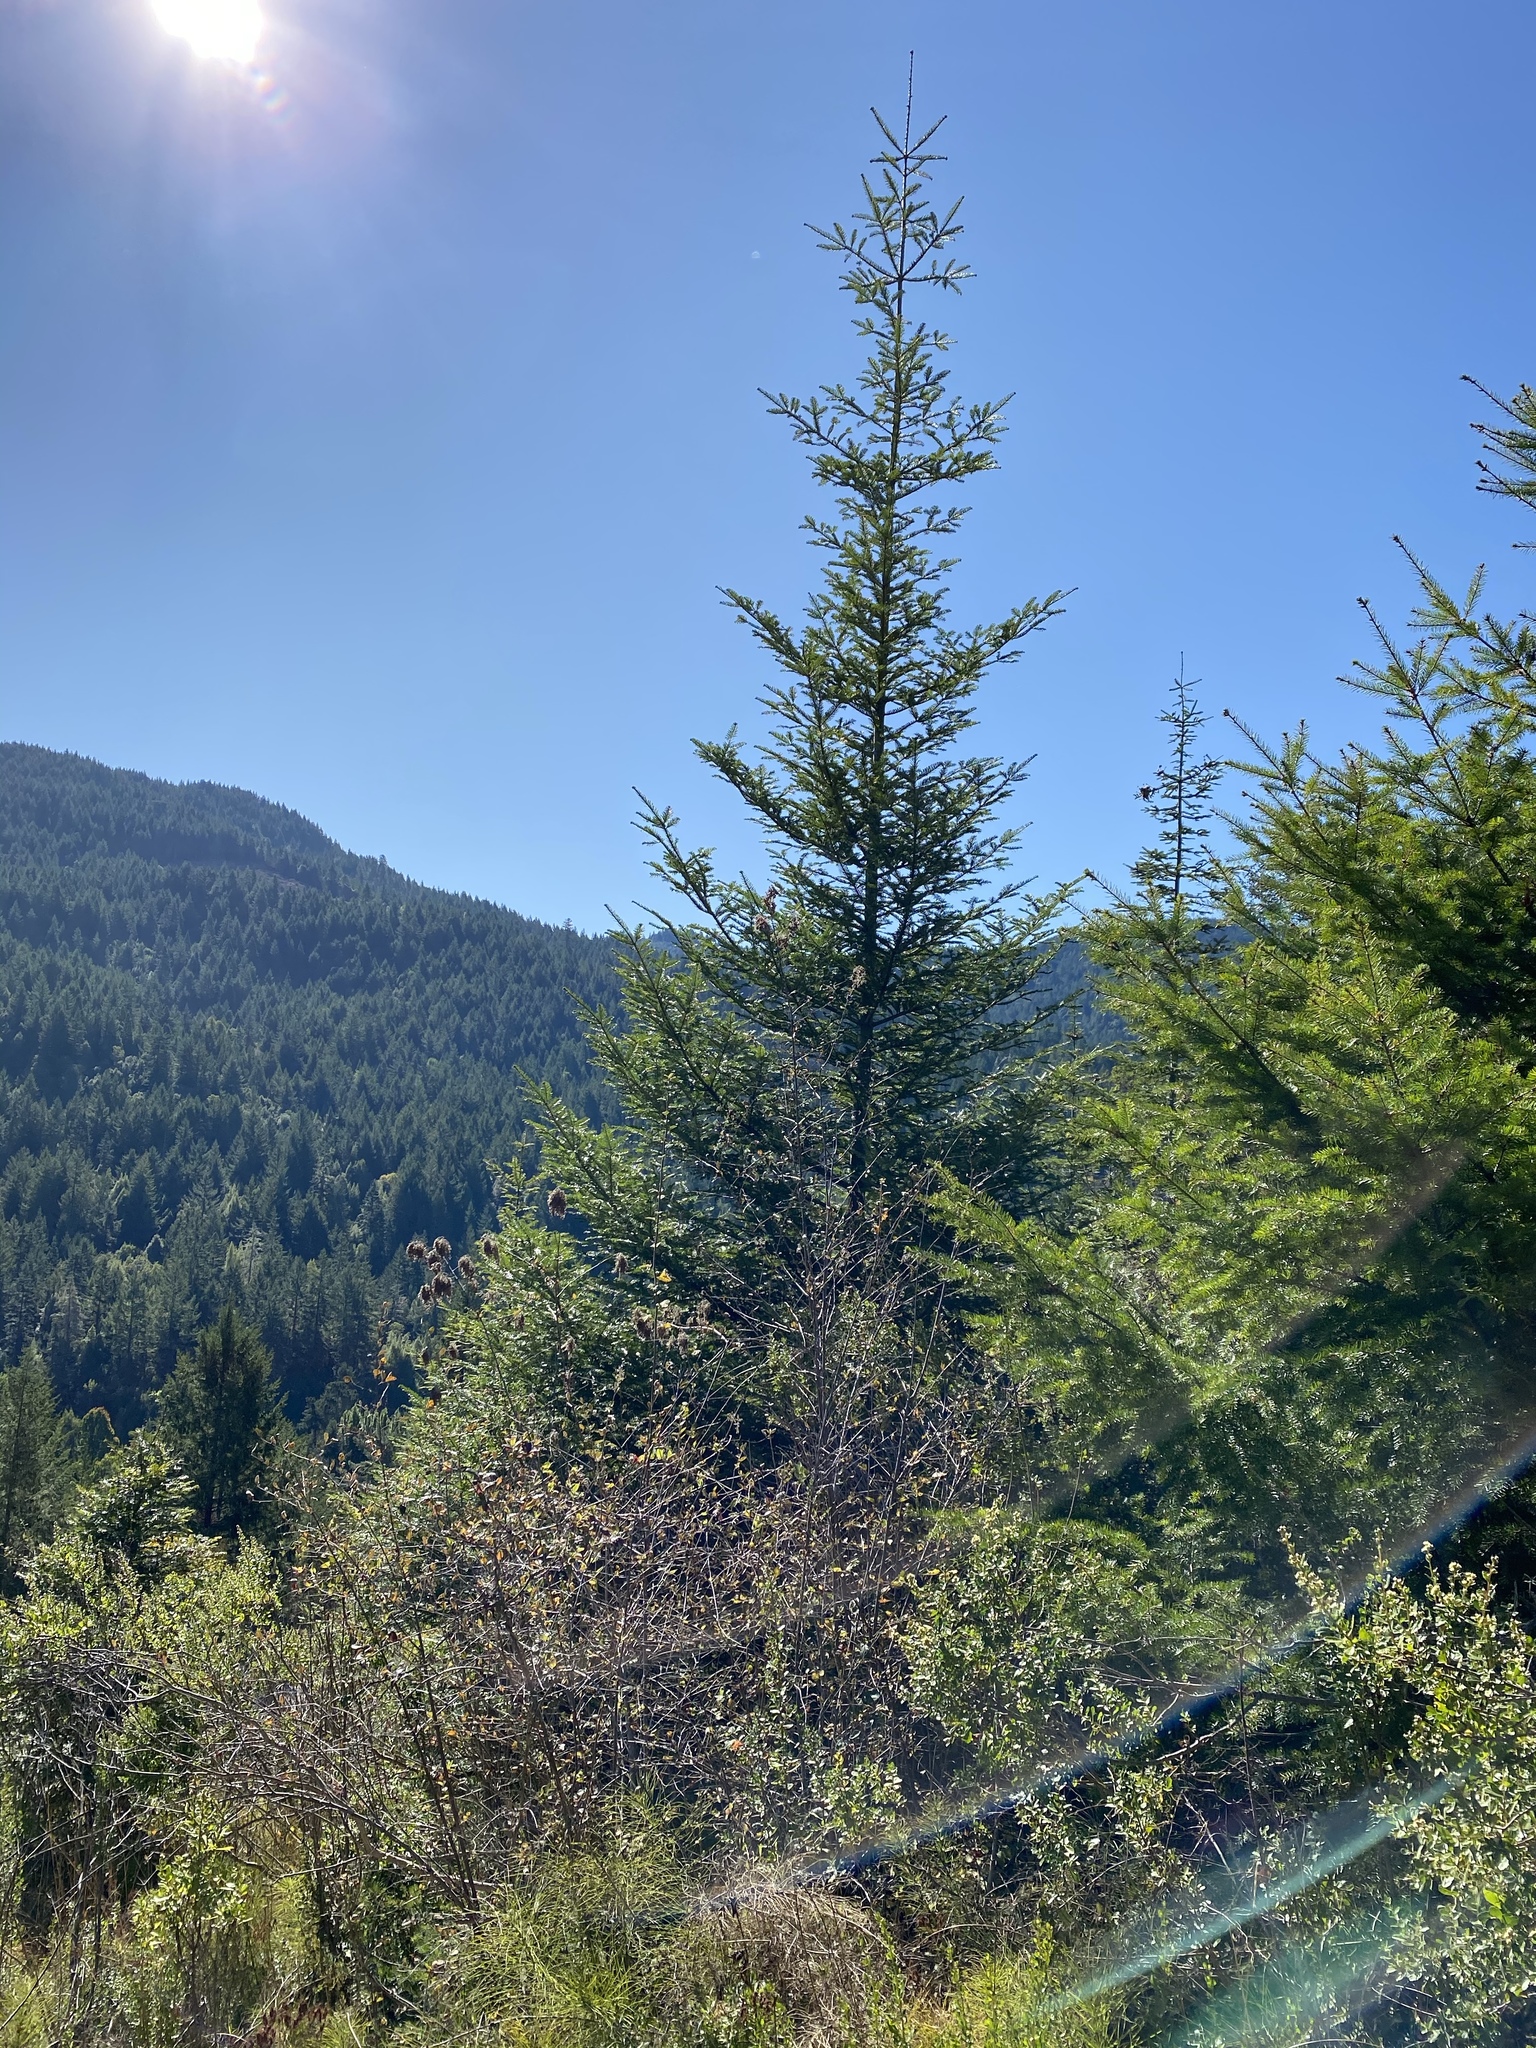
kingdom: Plantae
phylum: Tracheophyta
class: Pinopsida
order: Pinales
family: Pinaceae
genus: Abies
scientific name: Abies grandis
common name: Giant fir
